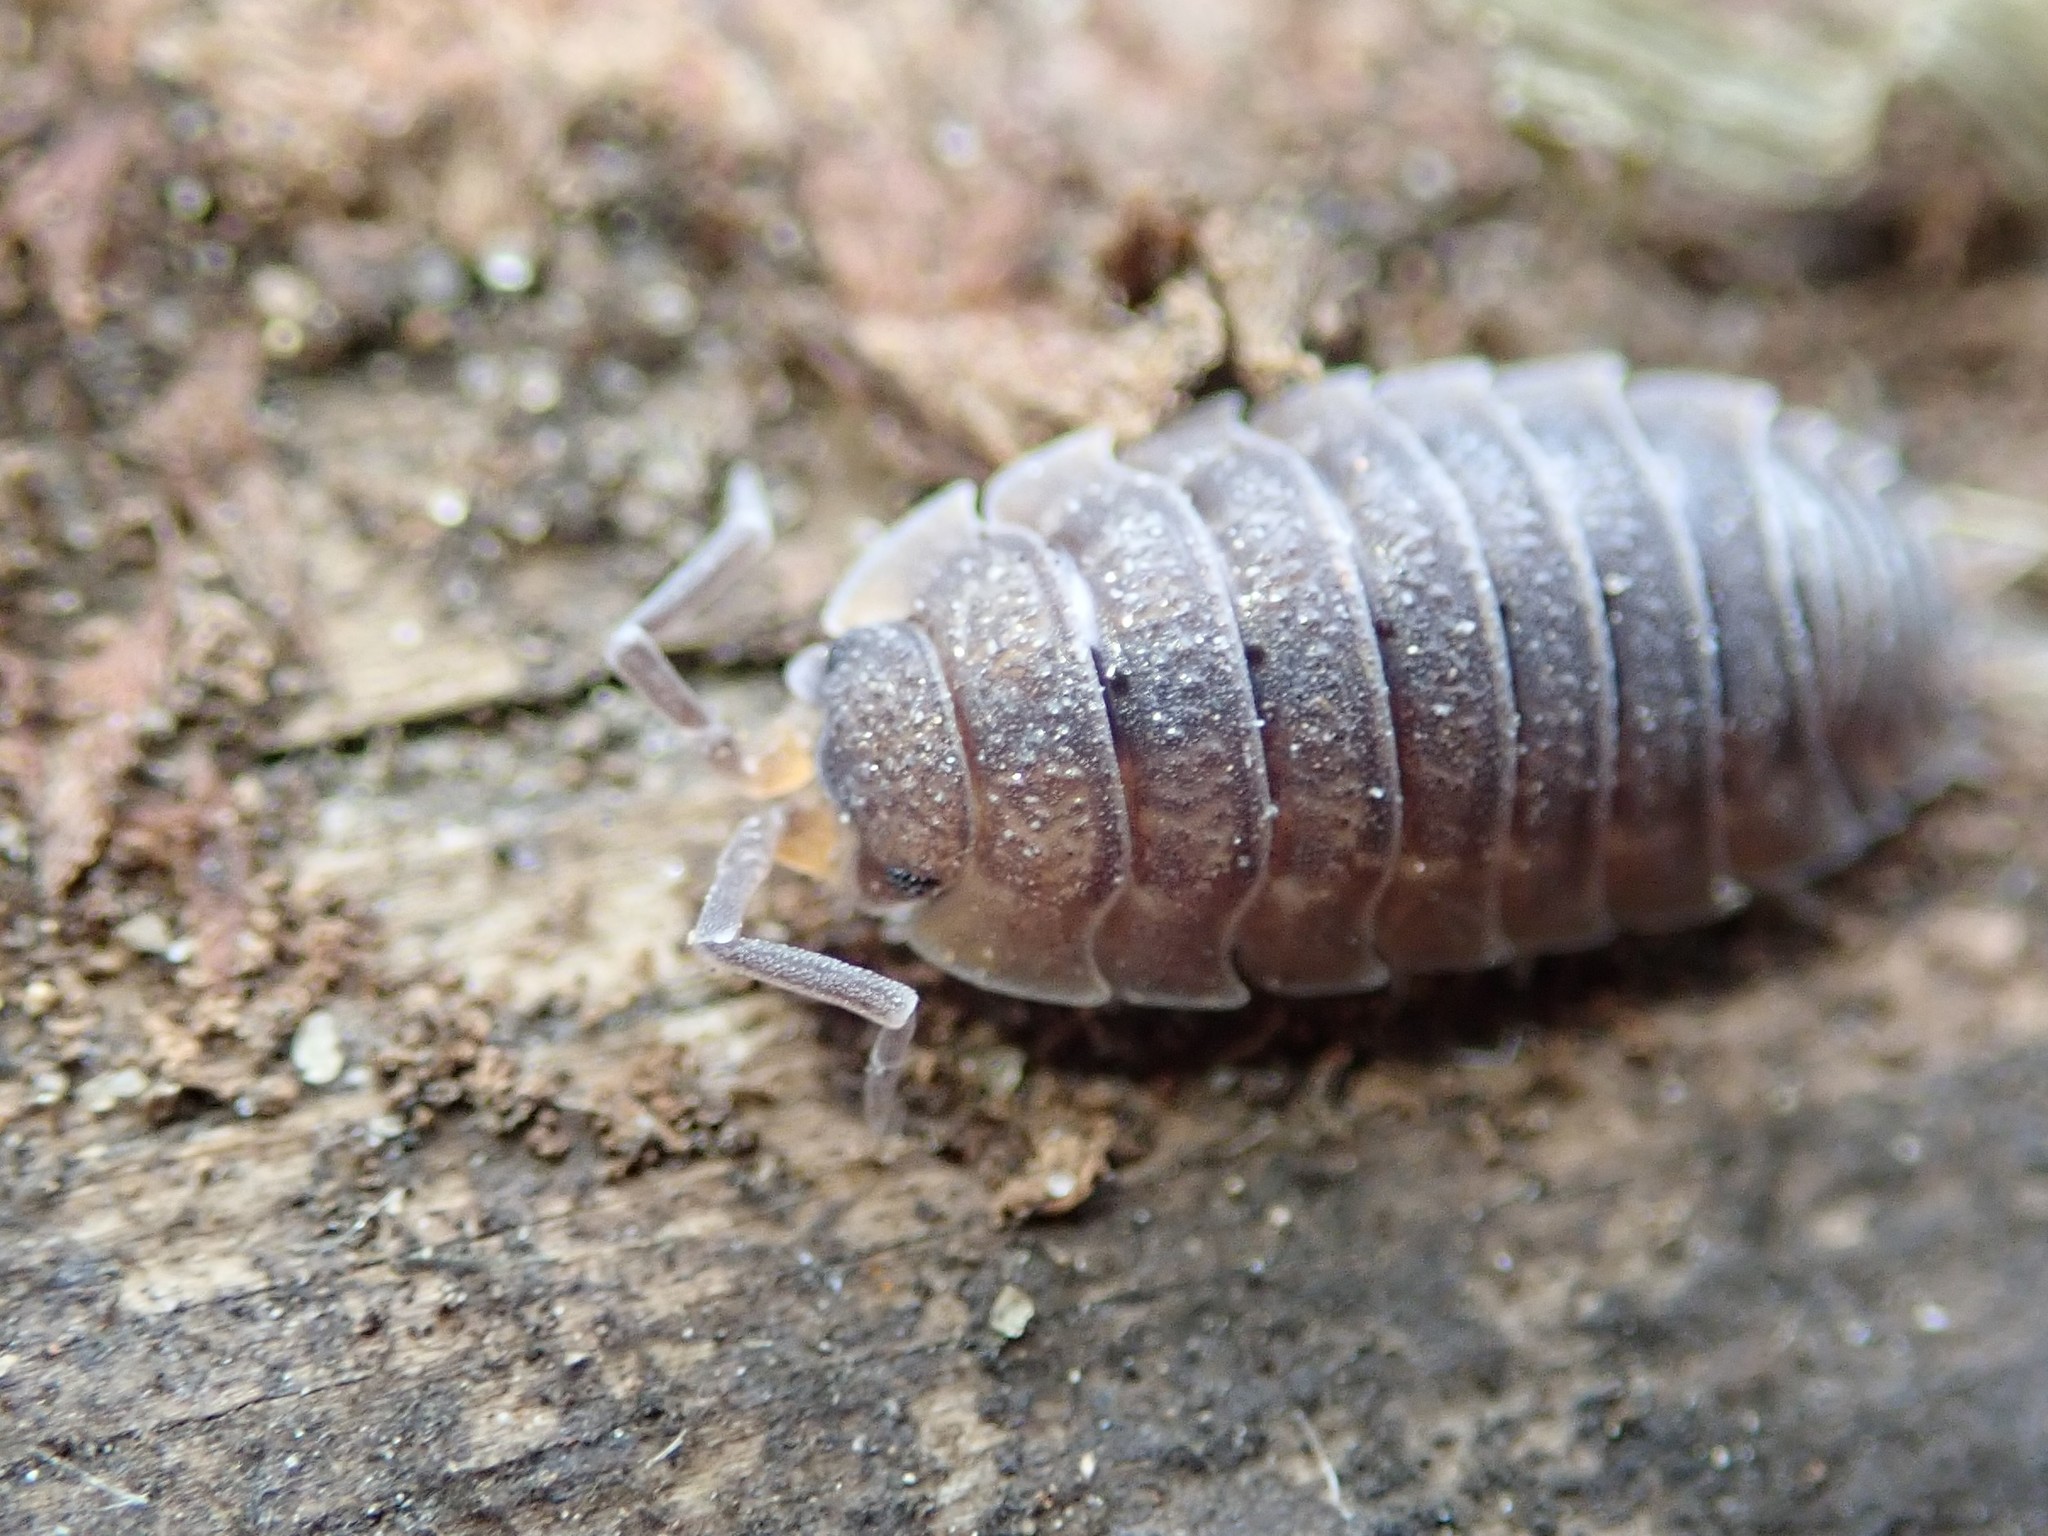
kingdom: Animalia
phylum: Arthropoda
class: Malacostraca
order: Isopoda
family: Porcellionidae
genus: Porcellio
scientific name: Porcellio scaber
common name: Common rough woodlouse
